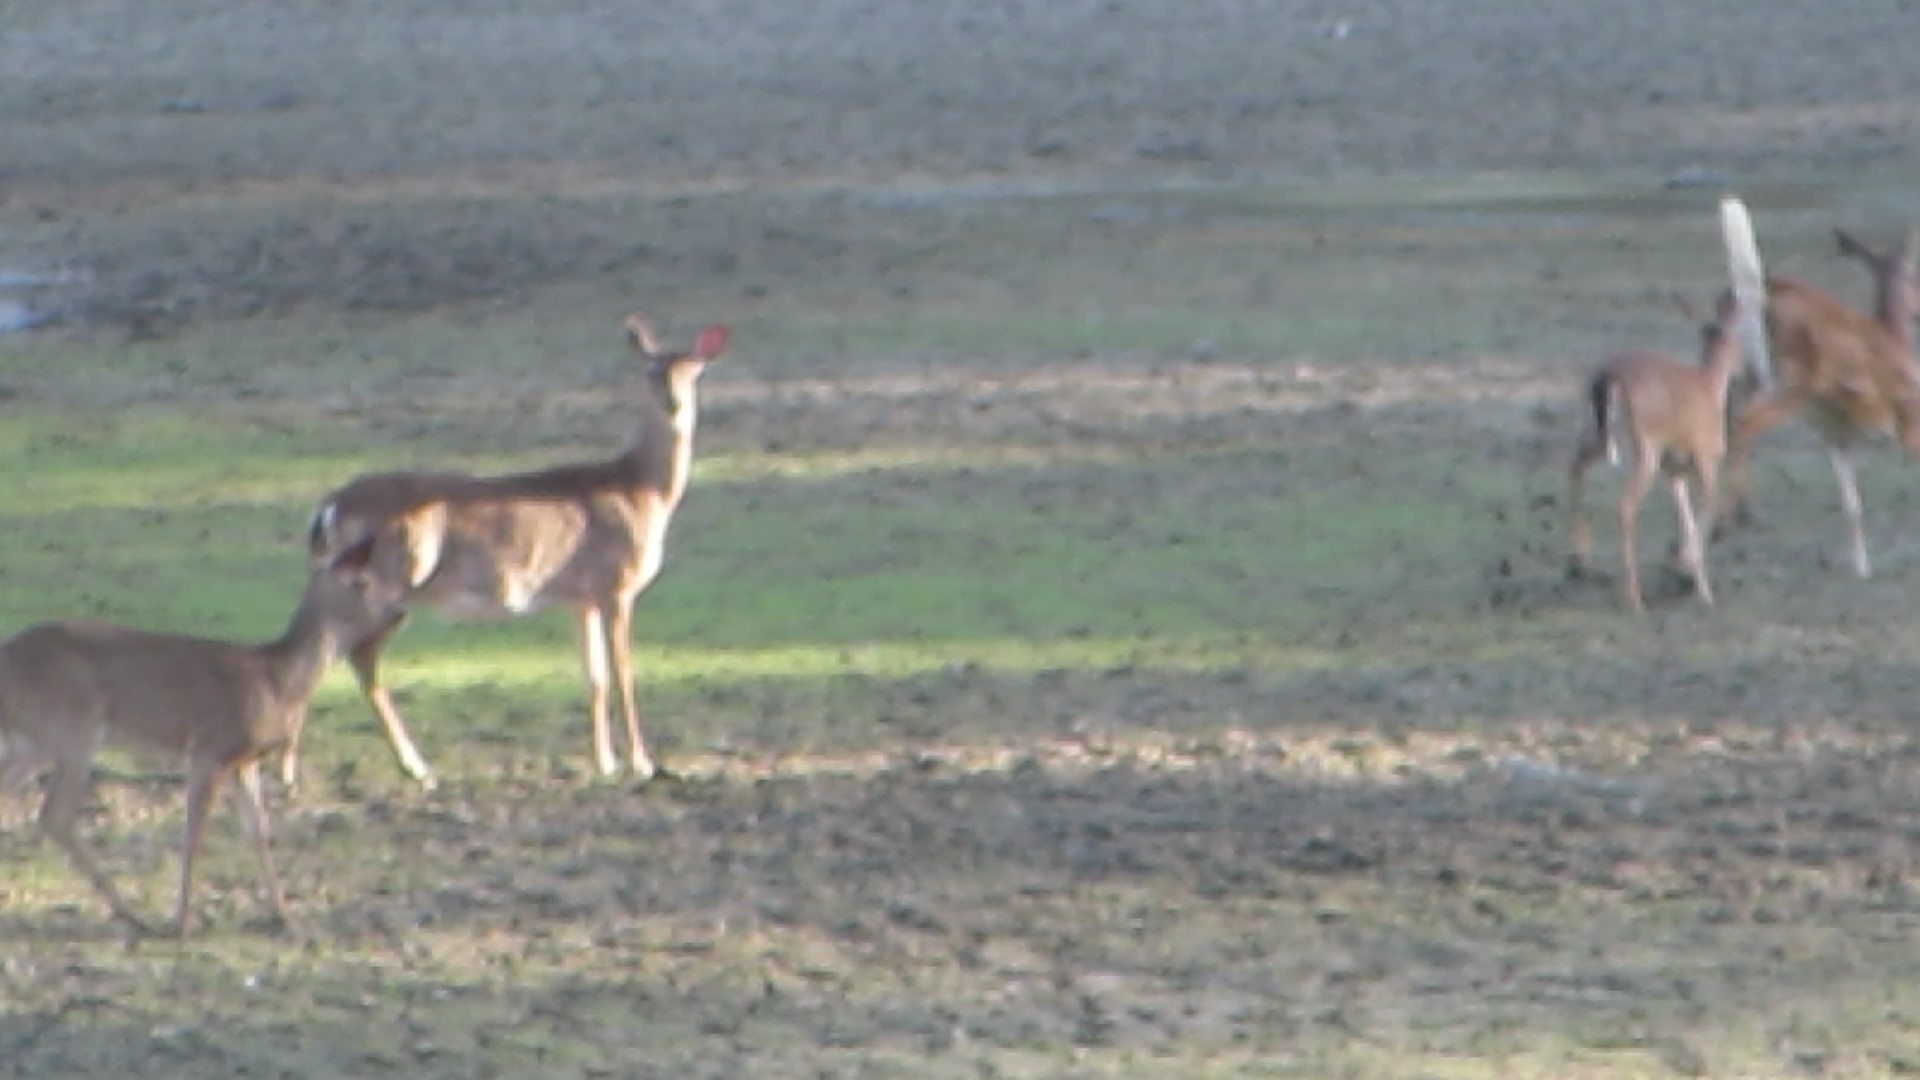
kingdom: Animalia
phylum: Chordata
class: Mammalia
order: Artiodactyla
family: Cervidae
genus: Odocoileus
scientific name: Odocoileus virginianus
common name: White-tailed deer
